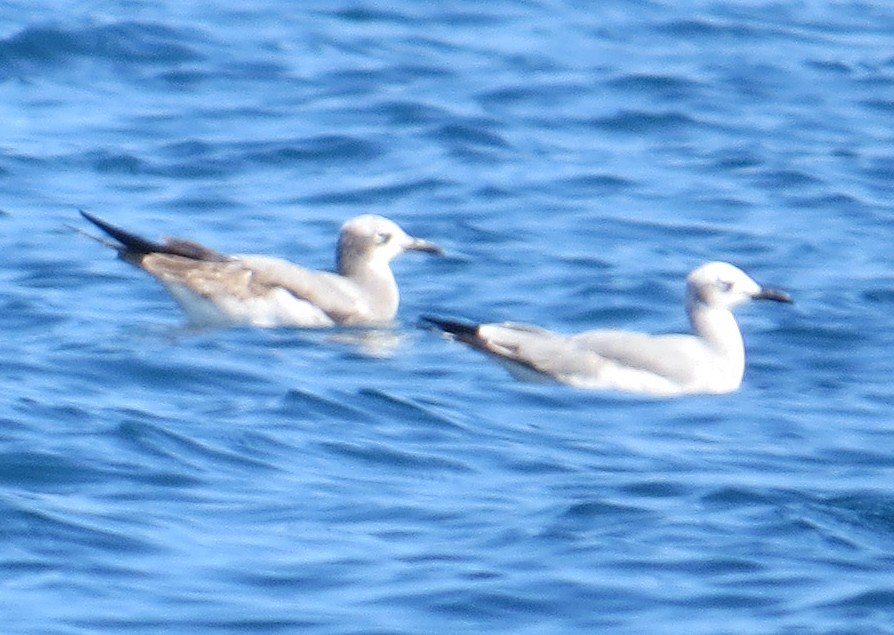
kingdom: Animalia
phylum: Chordata
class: Aves
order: Charadriiformes
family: Laridae
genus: Leucophaeus
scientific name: Leucophaeus atricilla
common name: Laughing gull
